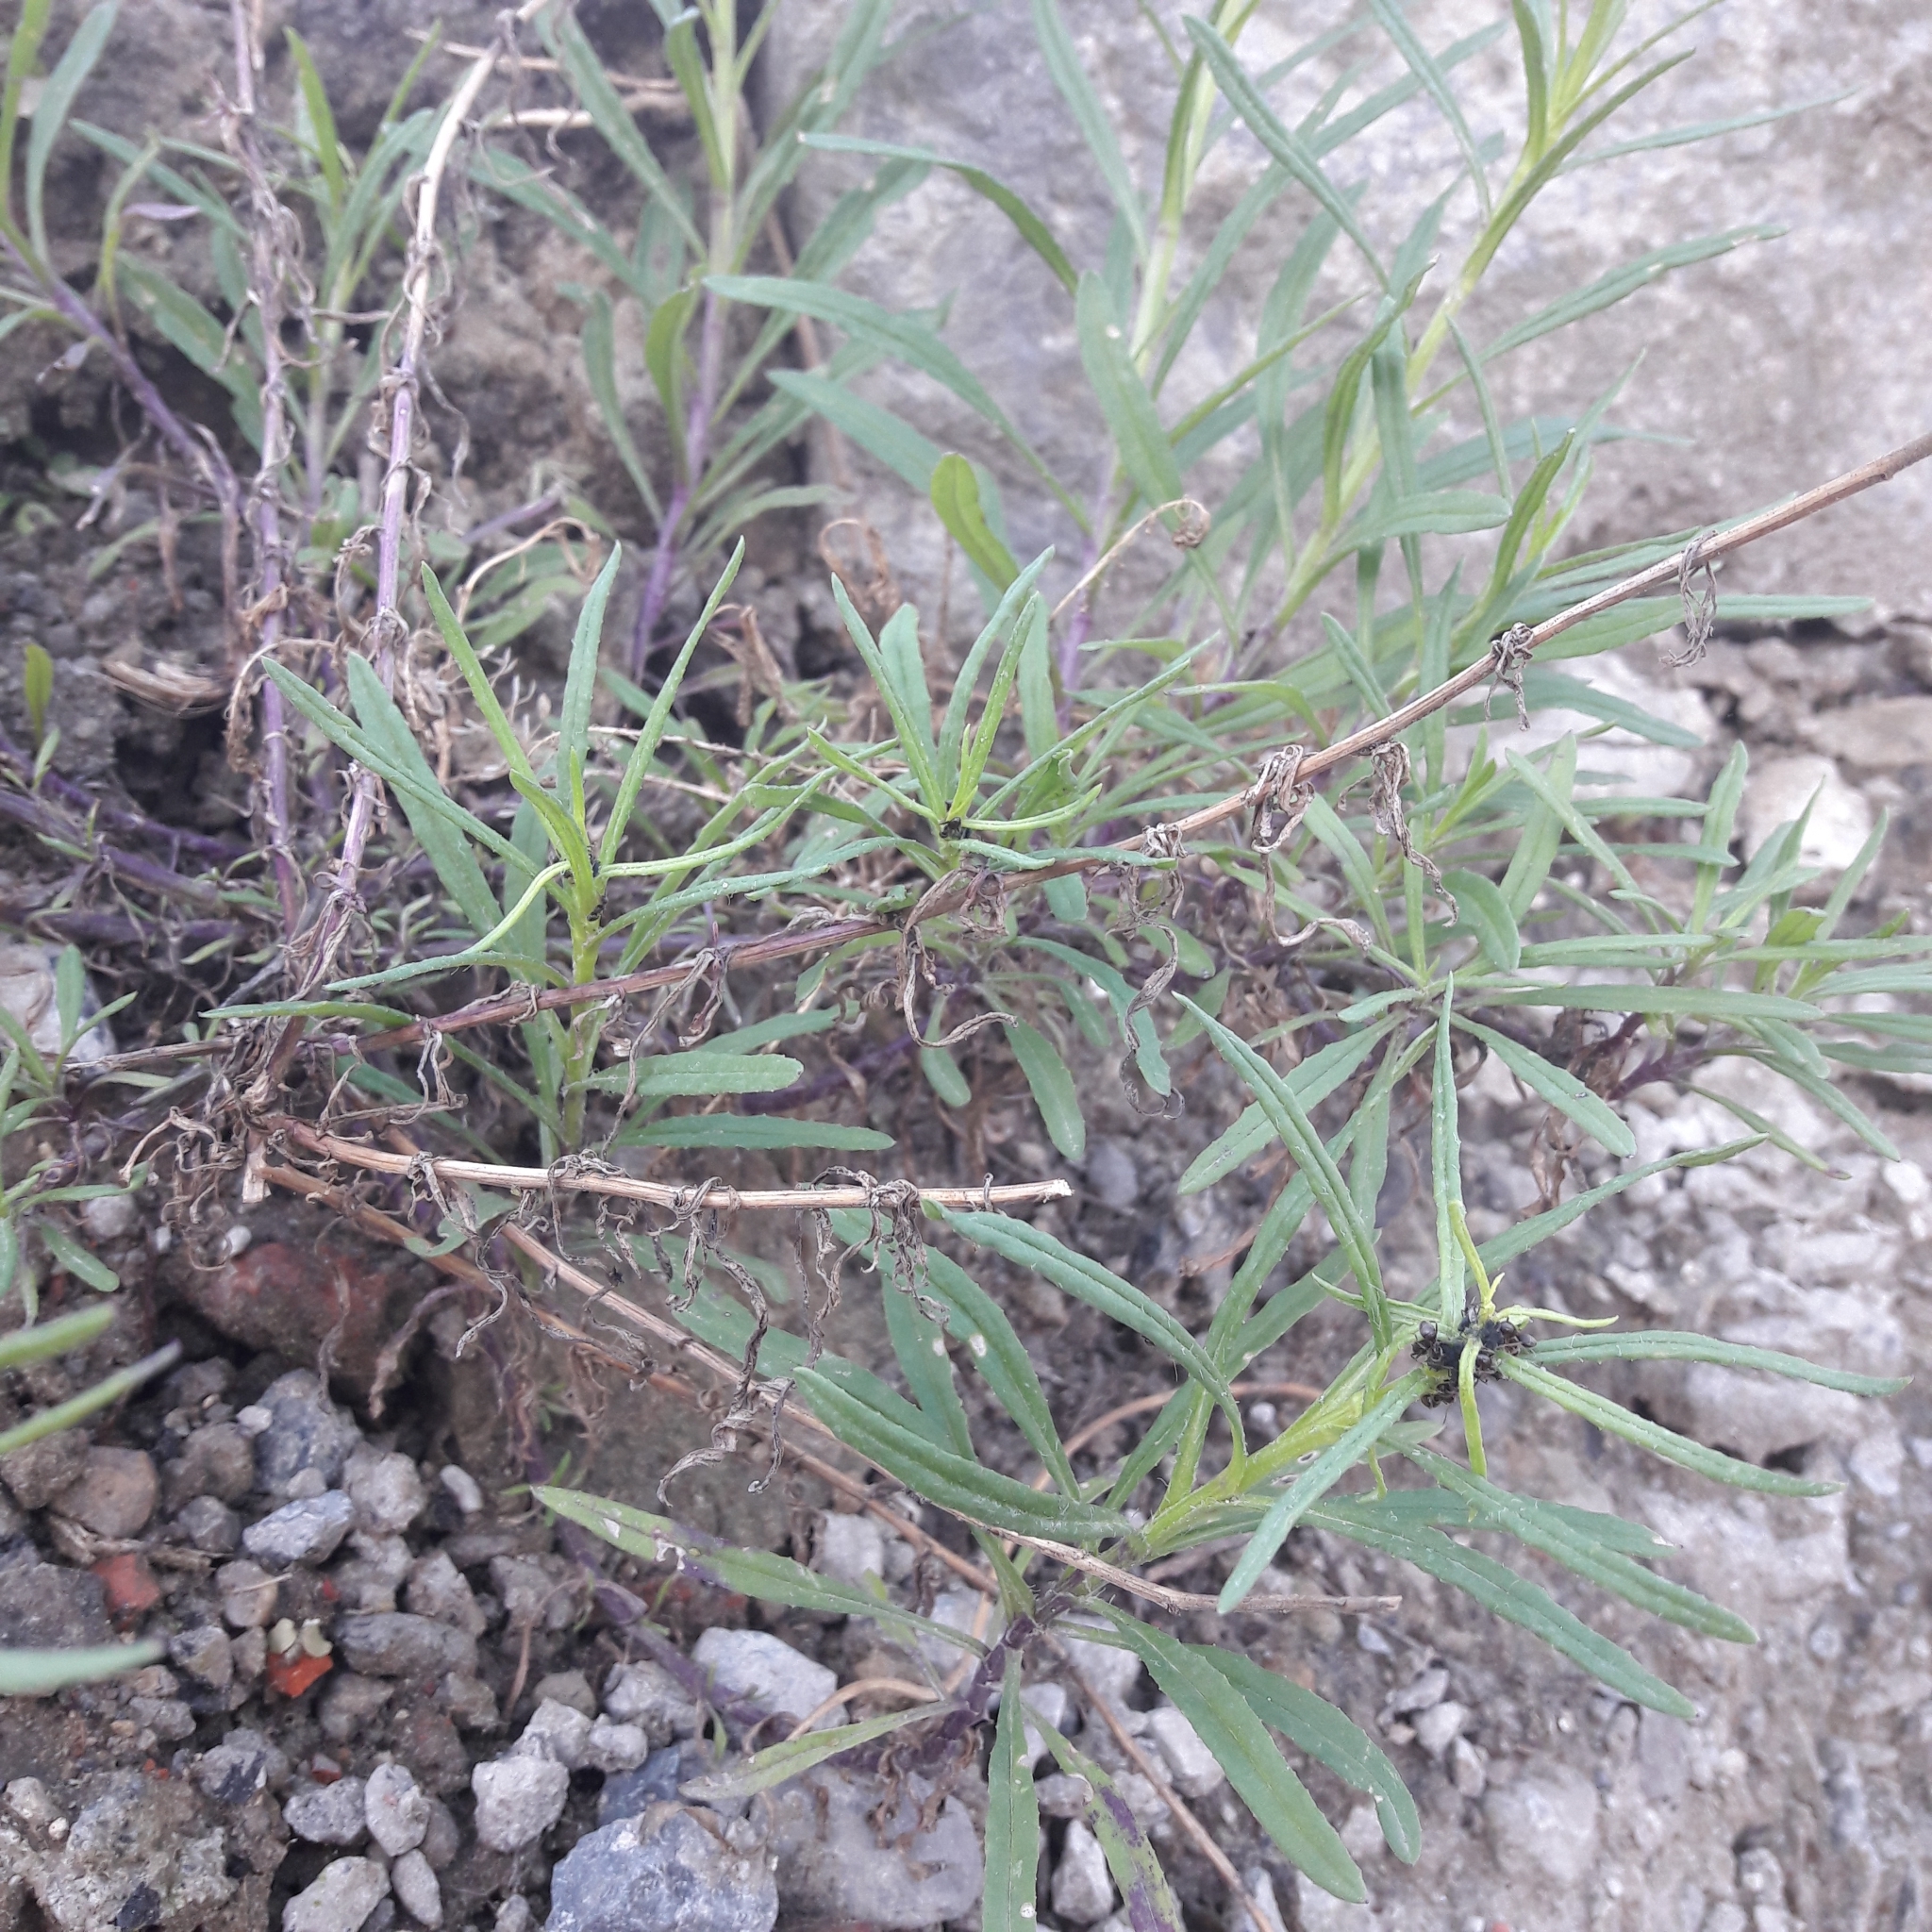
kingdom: Plantae
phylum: Tracheophyta
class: Magnoliopsida
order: Asterales
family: Asteraceae
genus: Senecio
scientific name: Senecio inaequidens
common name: Narrow-leaved ragwort
